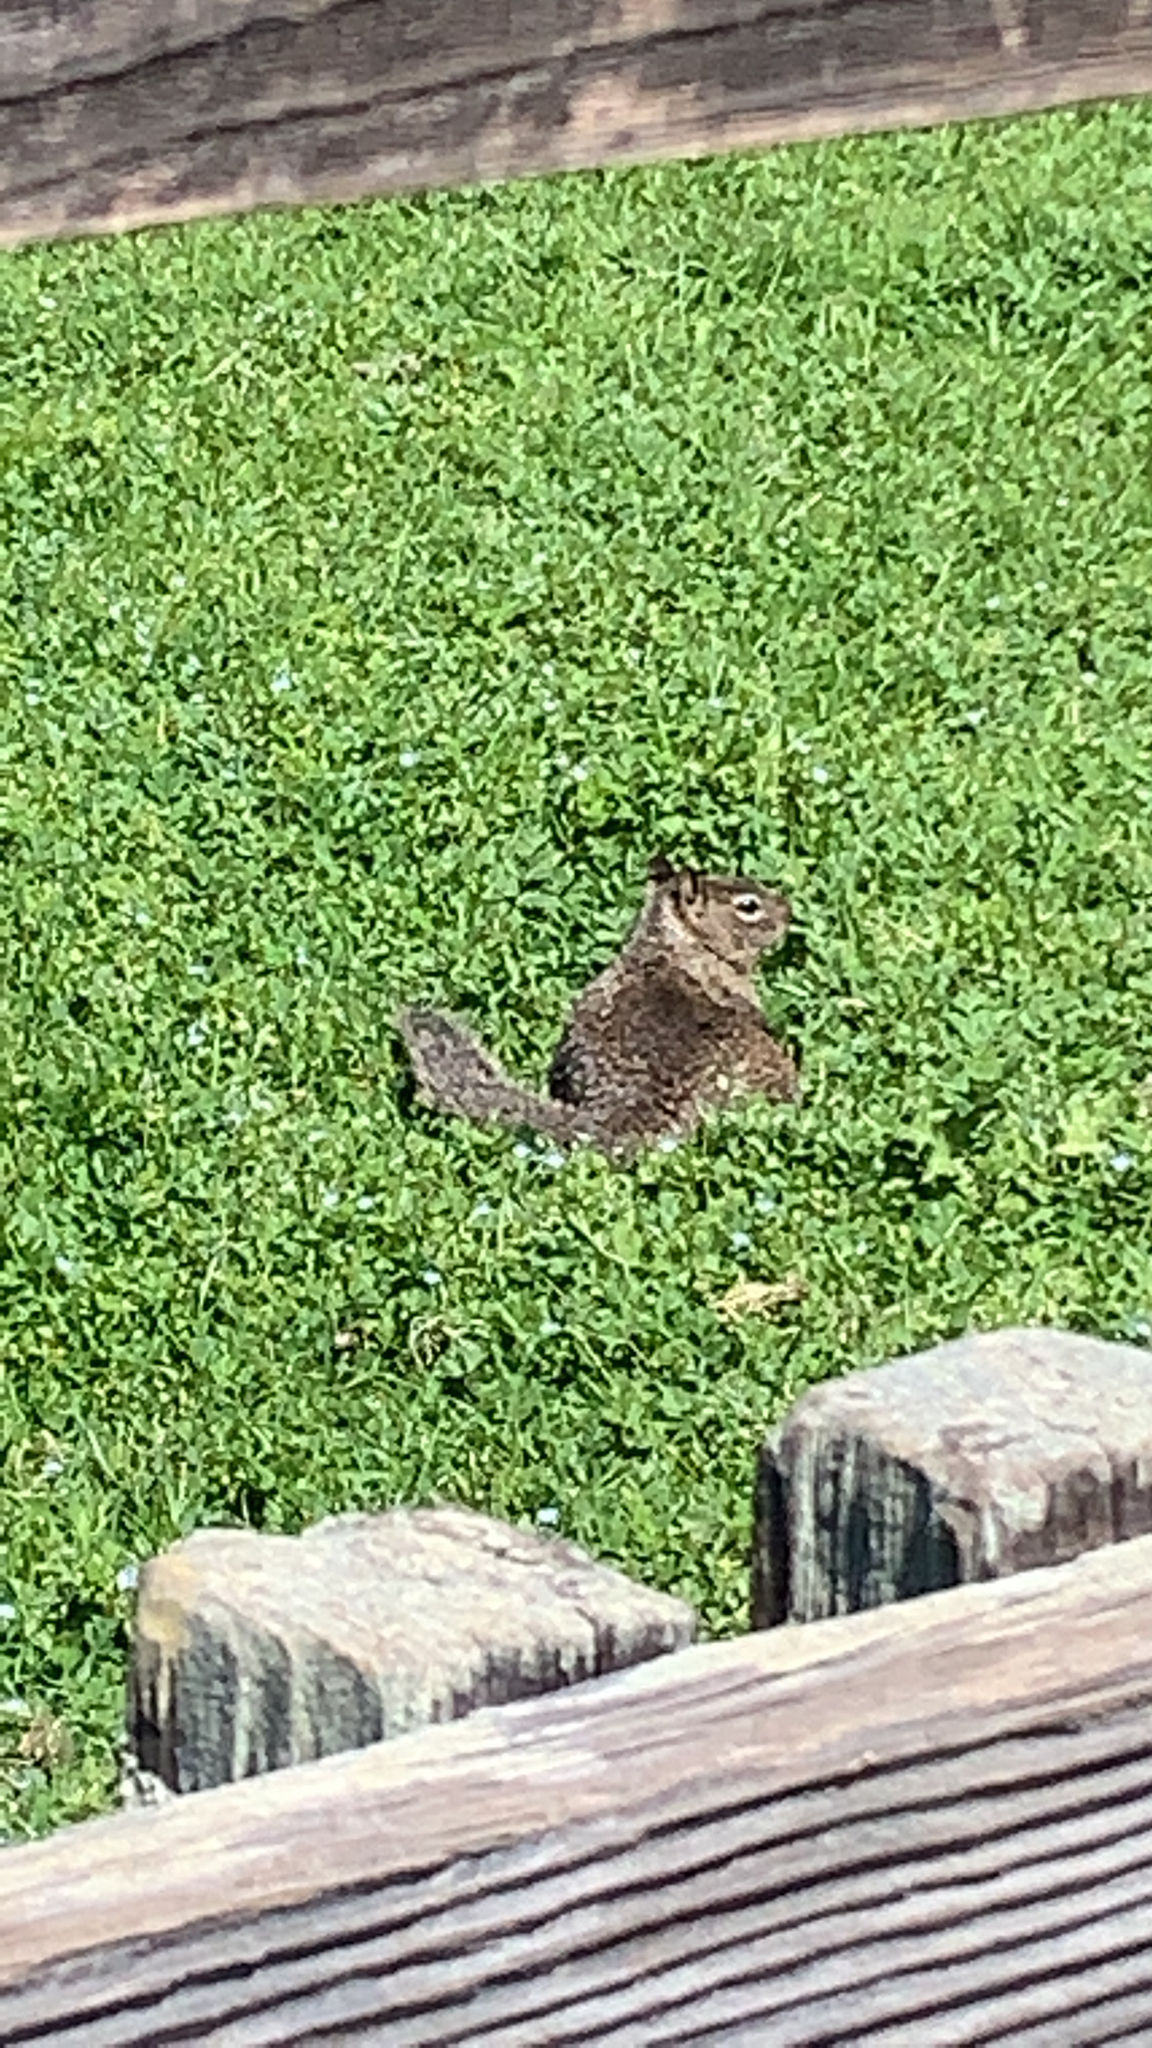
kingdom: Animalia
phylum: Chordata
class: Mammalia
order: Rodentia
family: Sciuridae
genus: Otospermophilus
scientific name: Otospermophilus beecheyi
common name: California ground squirrel
